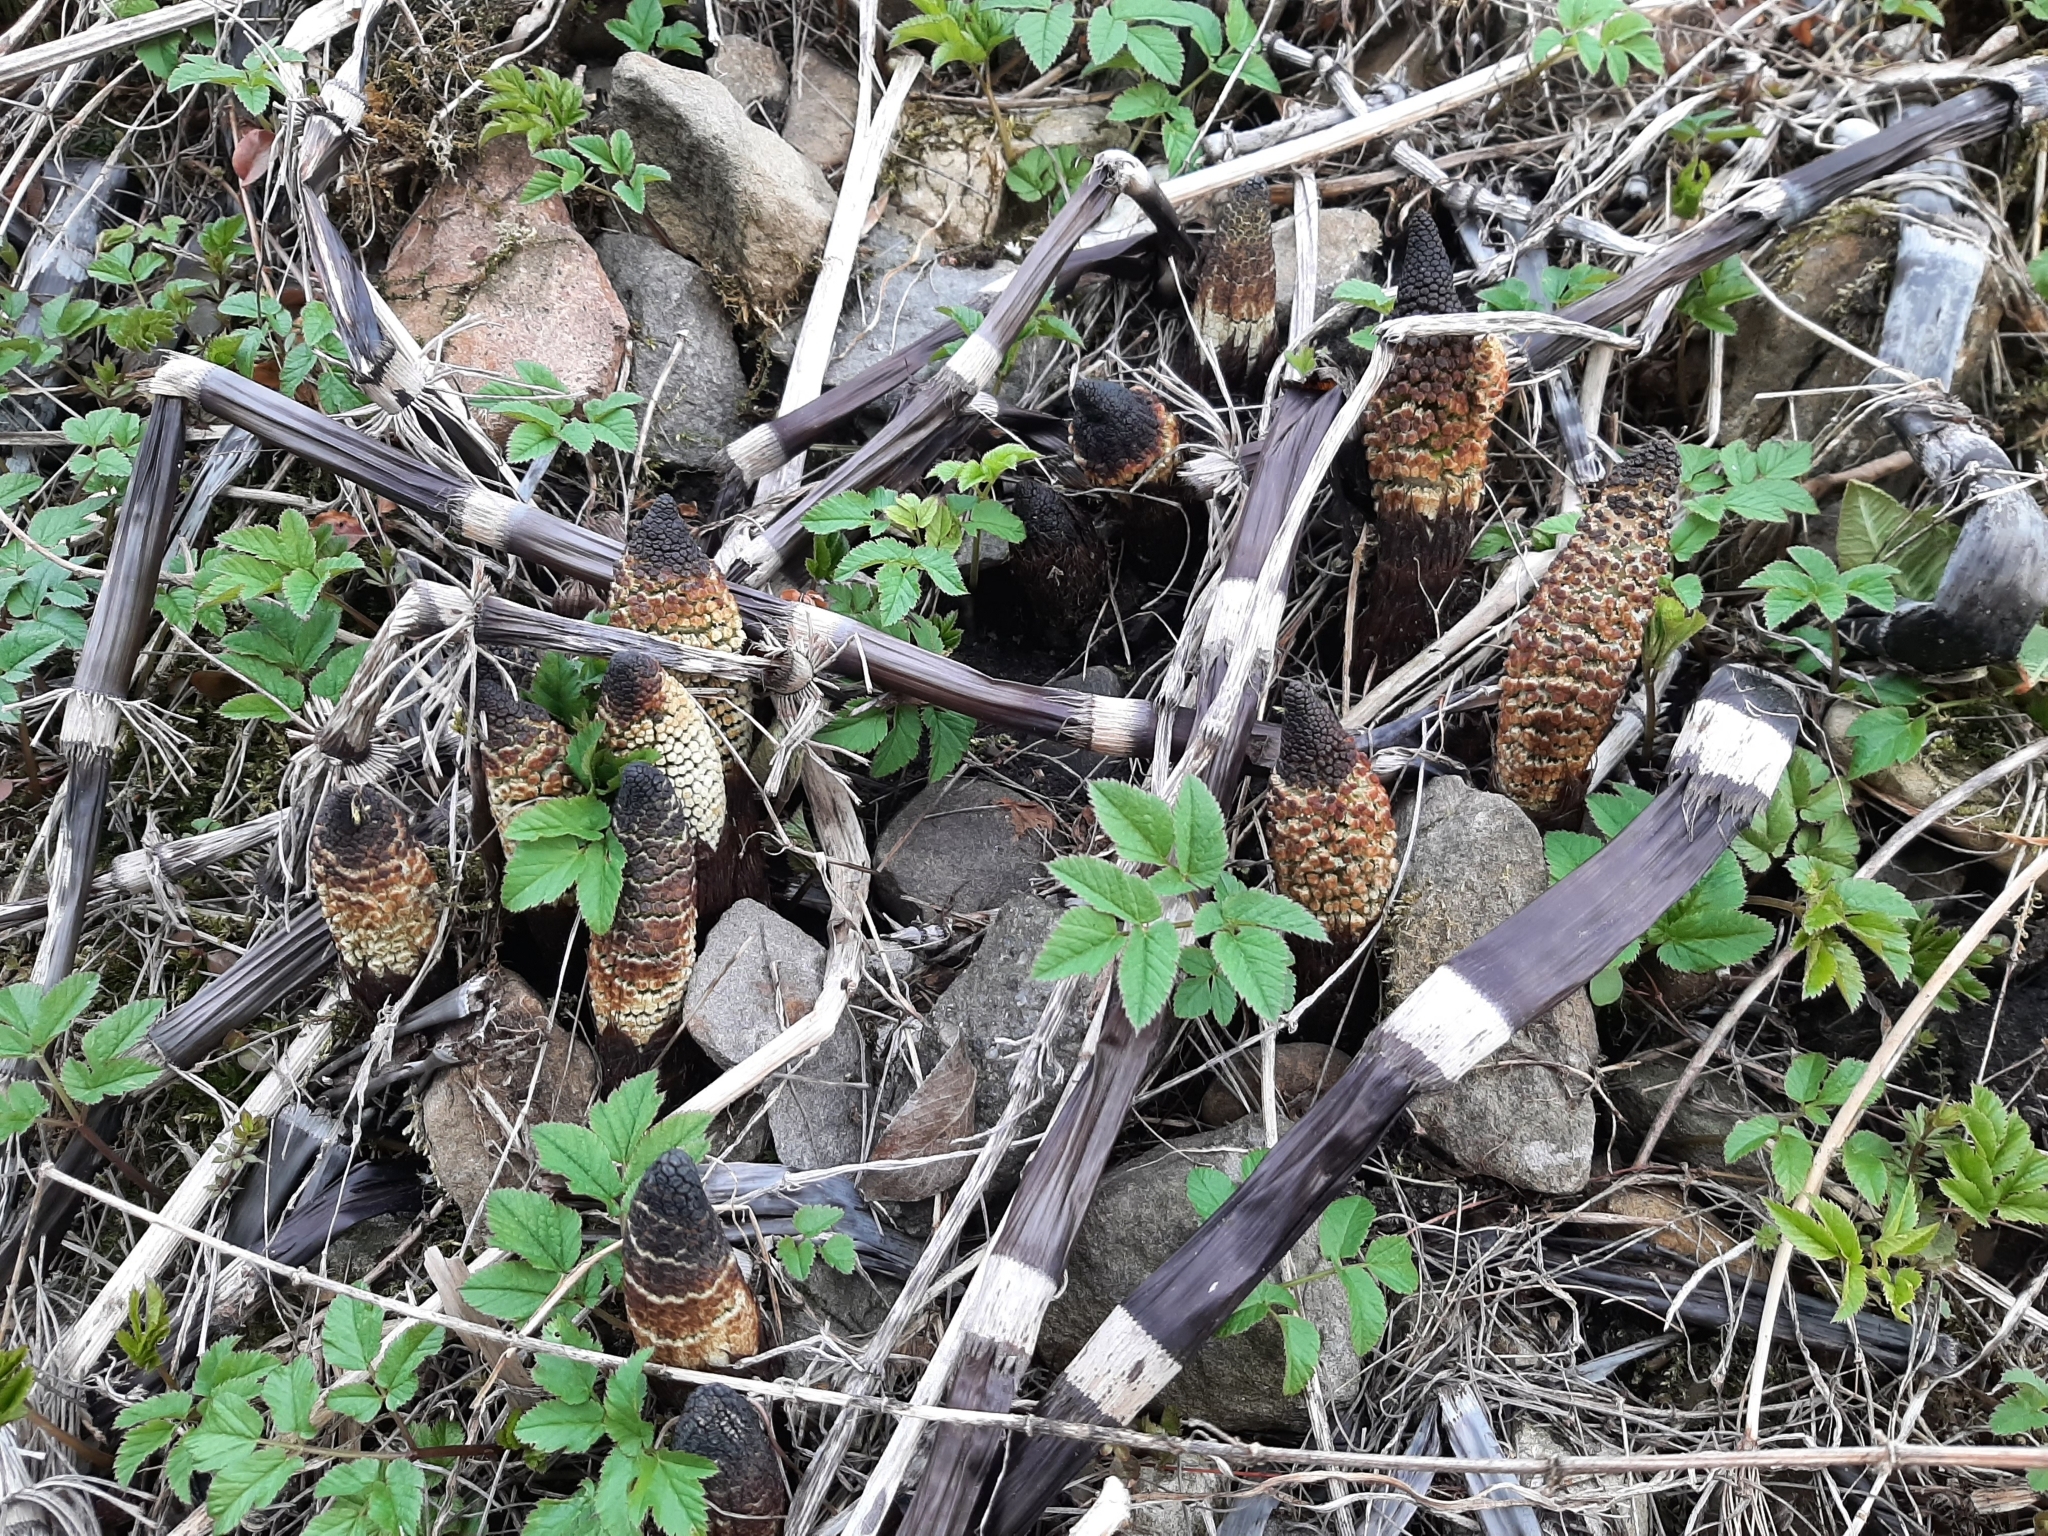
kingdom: Plantae
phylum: Tracheophyta
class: Polypodiopsida
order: Equisetales
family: Equisetaceae
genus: Equisetum
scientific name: Equisetum telmateia
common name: Great horsetail
